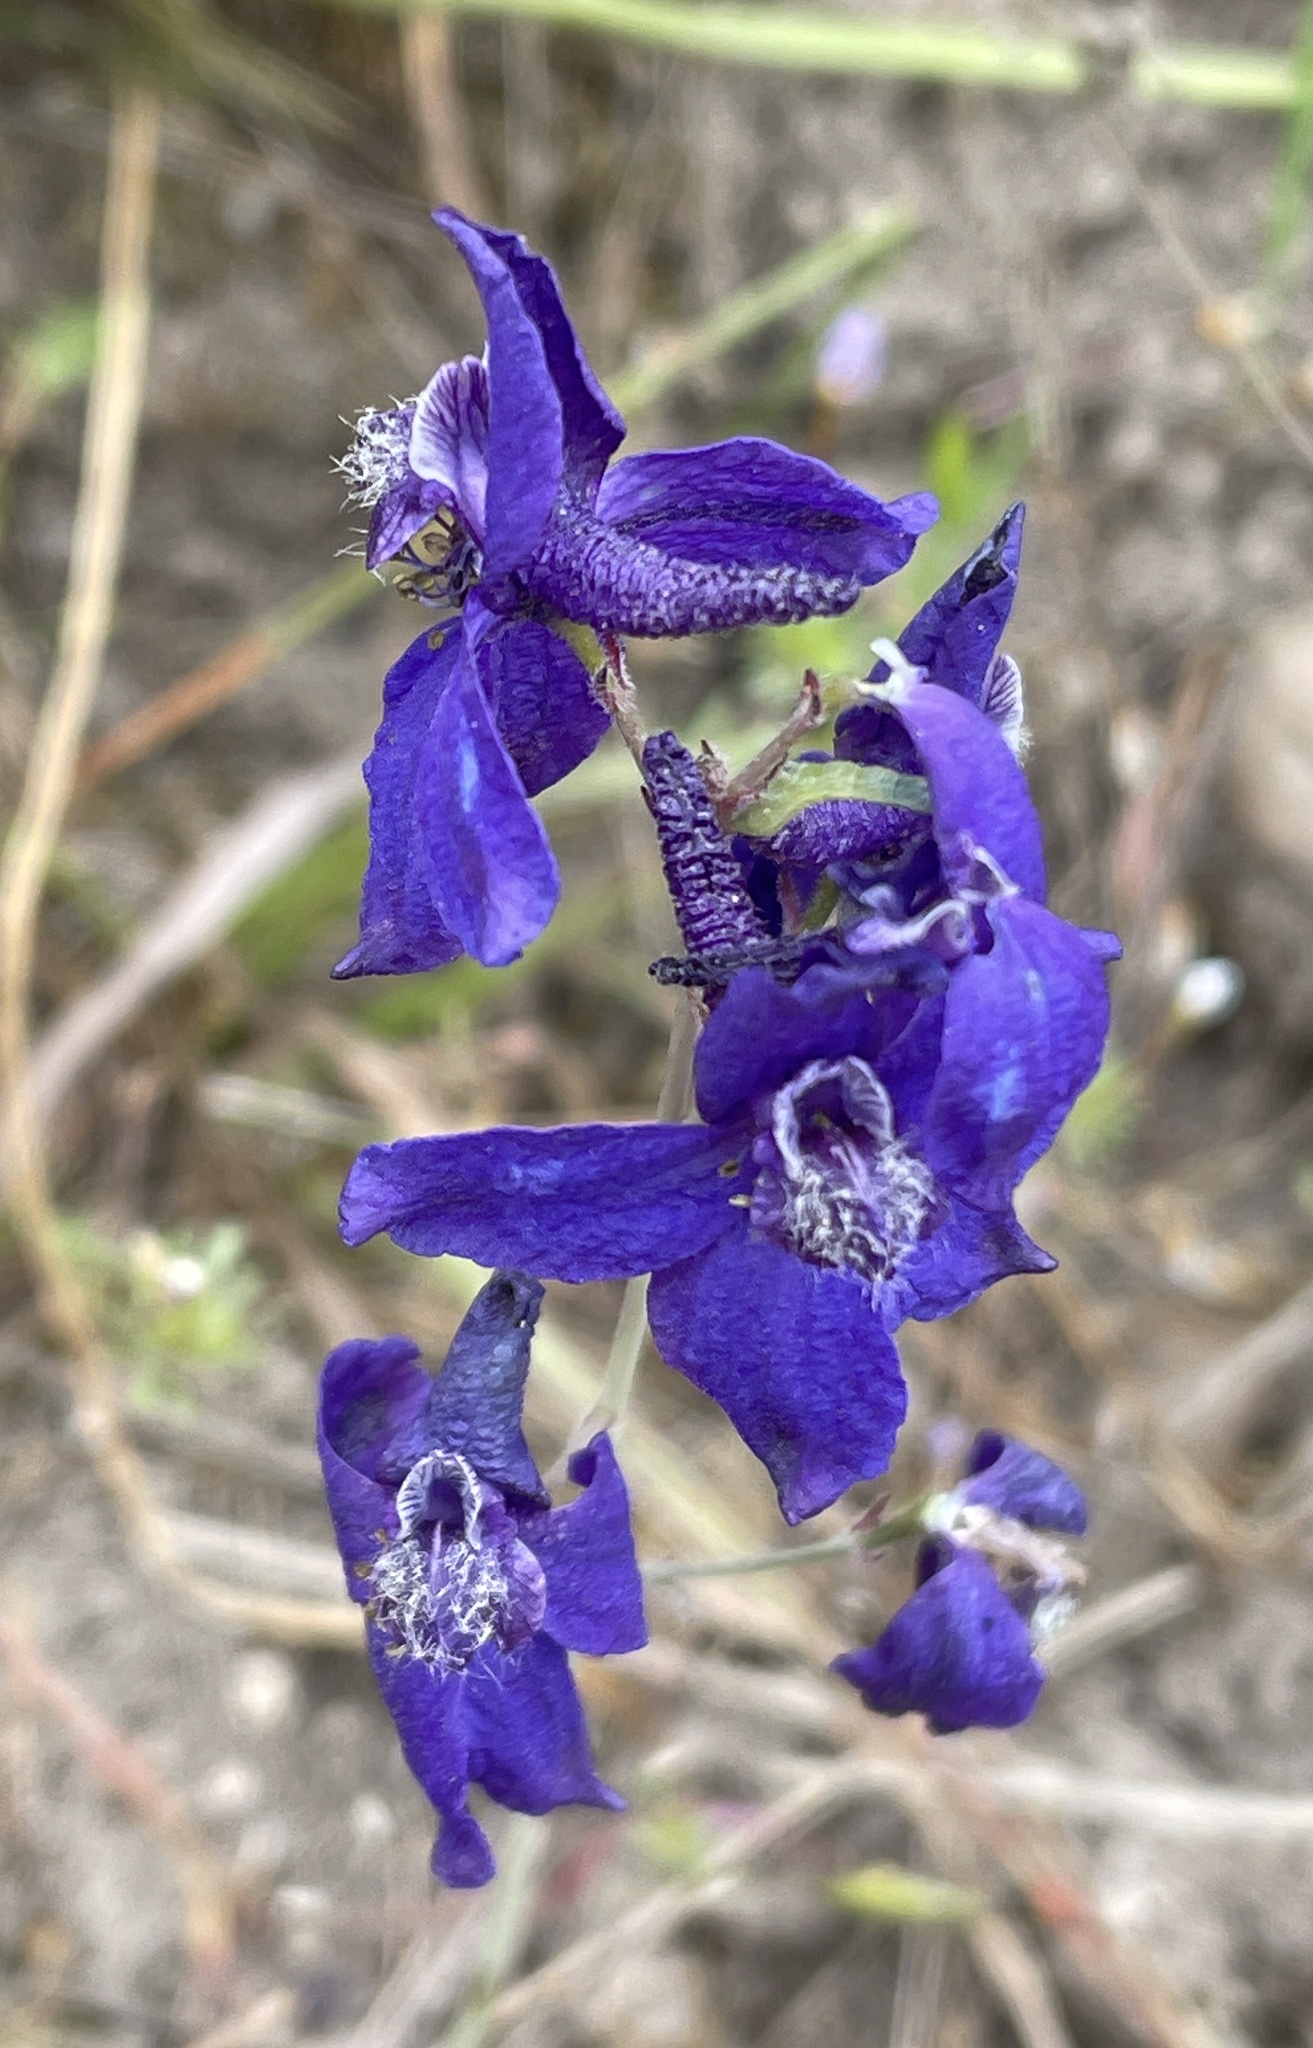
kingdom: Plantae
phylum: Tracheophyta
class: Magnoliopsida
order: Ranunculales
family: Ranunculaceae
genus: Delphinium
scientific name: Delphinium patens
